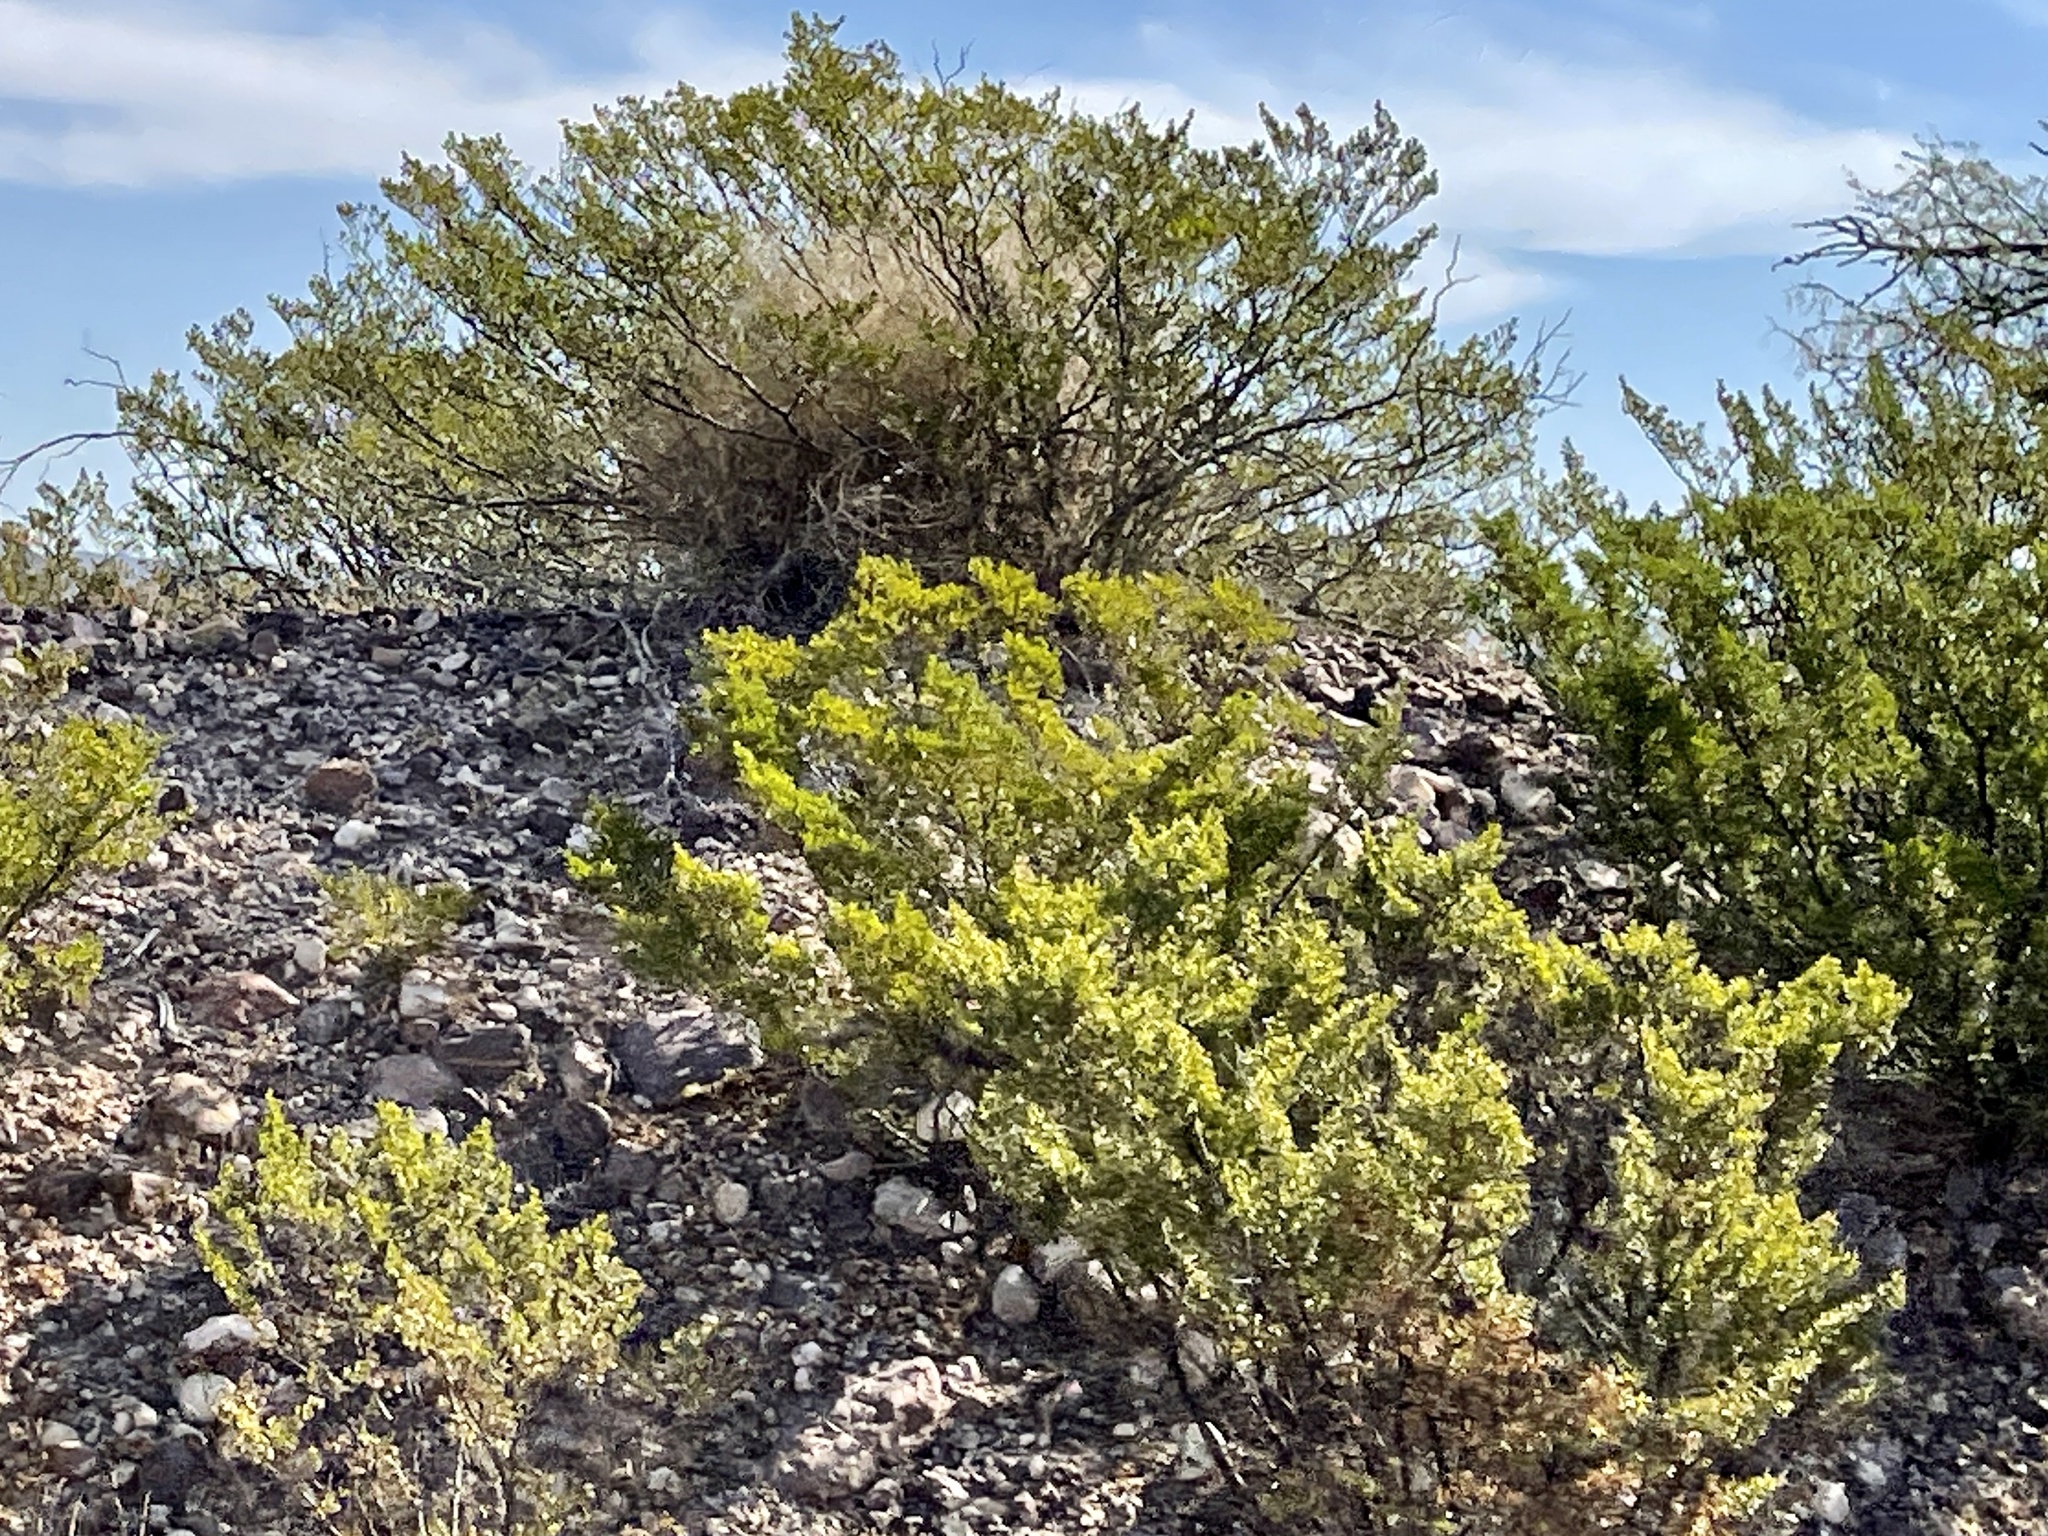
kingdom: Plantae
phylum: Tracheophyta
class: Magnoliopsida
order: Zygophyllales
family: Zygophyllaceae
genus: Larrea
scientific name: Larrea tridentata
